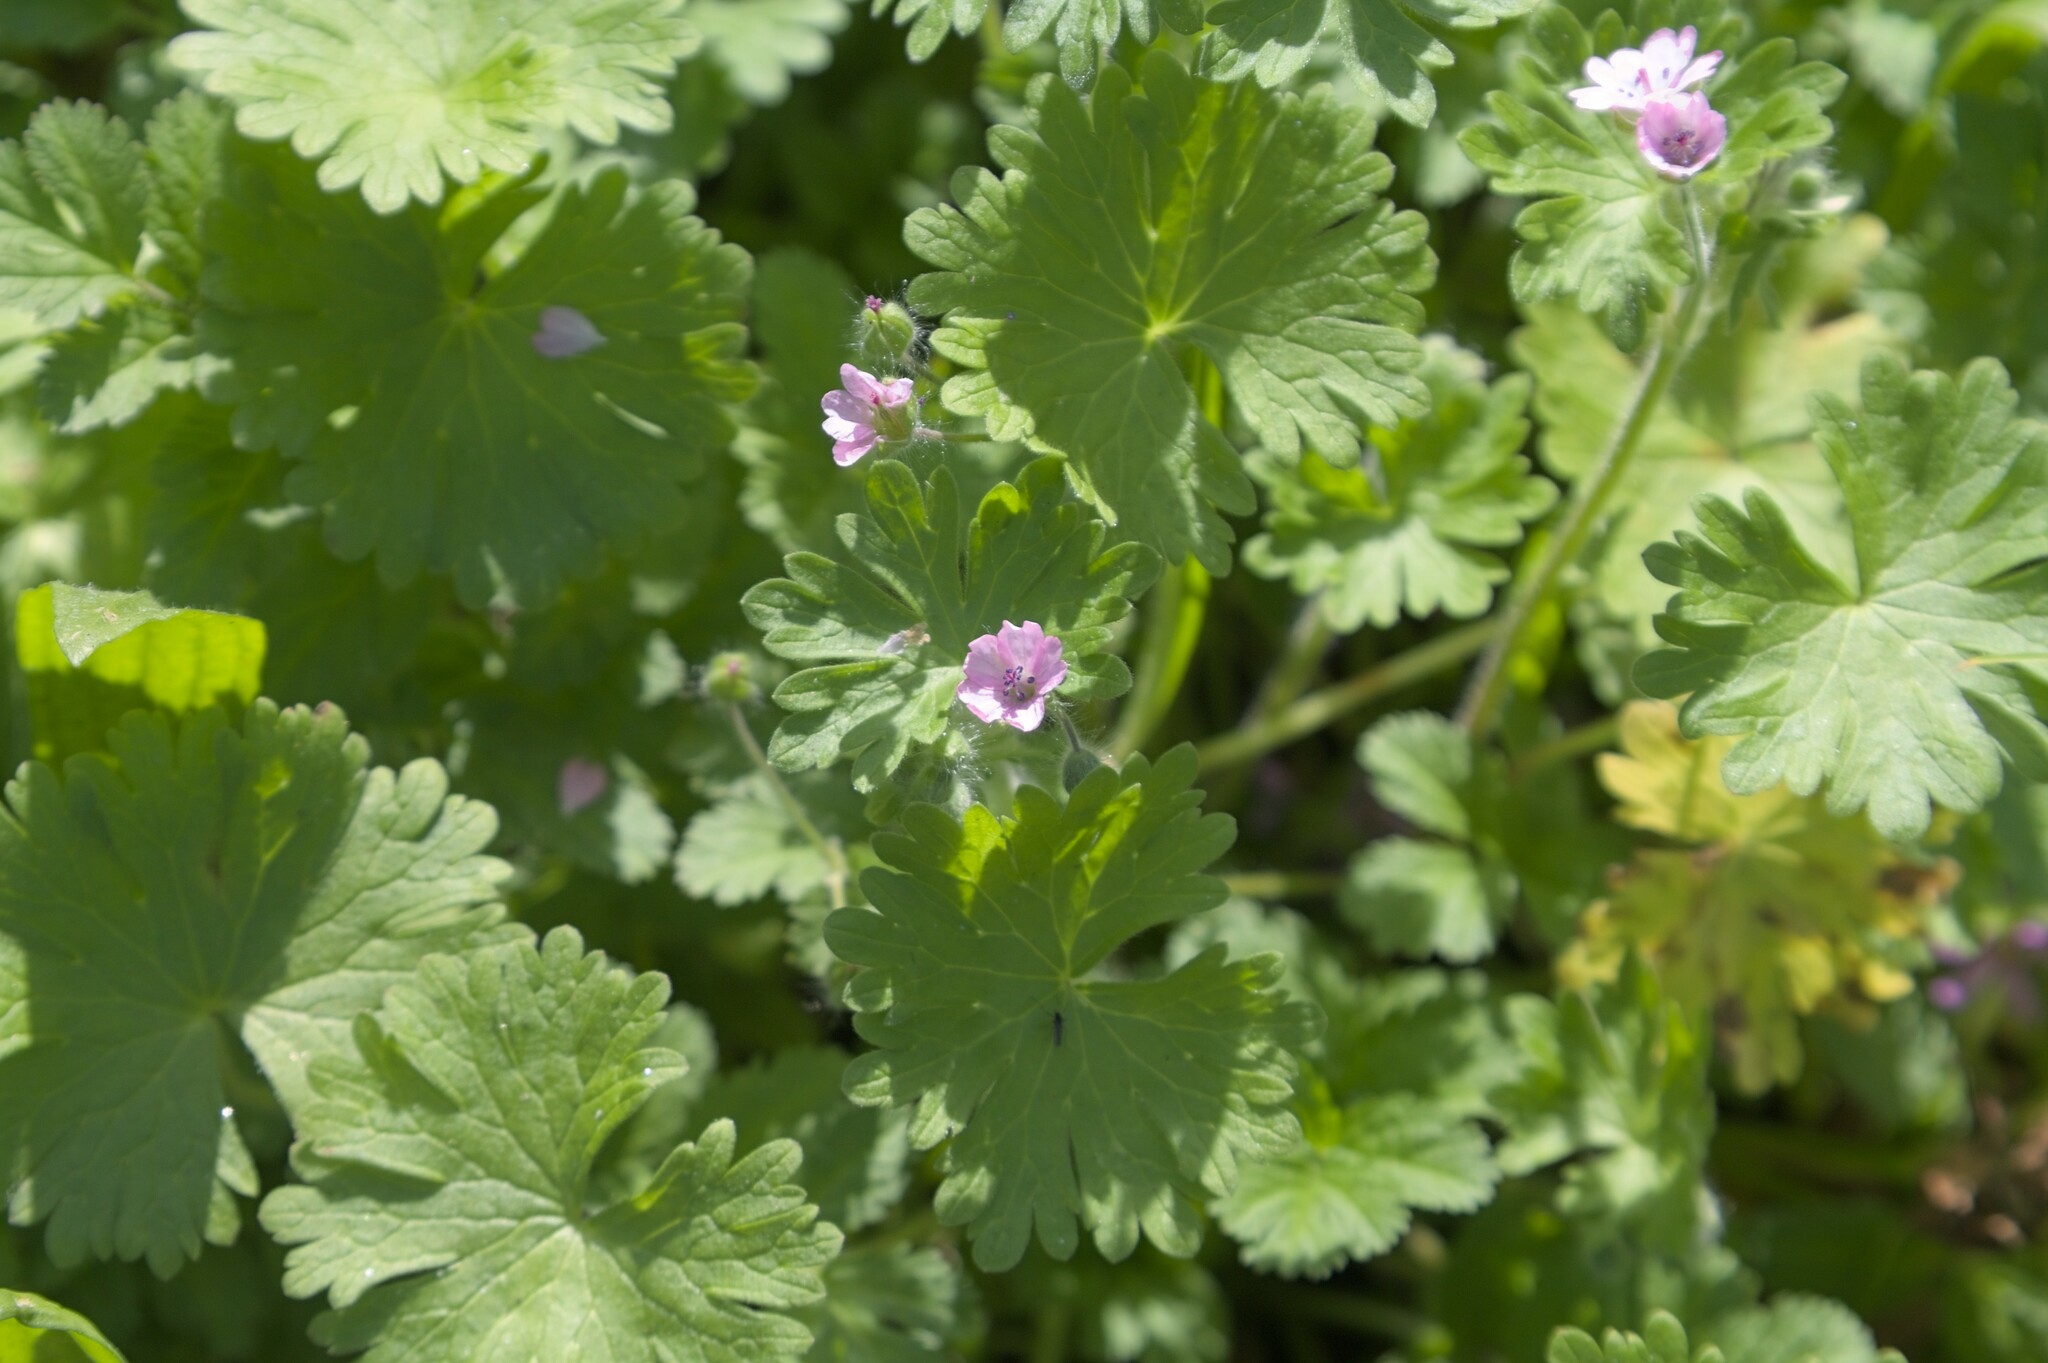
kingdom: Plantae
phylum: Tracheophyta
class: Magnoliopsida
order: Geraniales
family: Geraniaceae
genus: Geranium
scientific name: Geranium molle
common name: Dove's-foot crane's-bill
